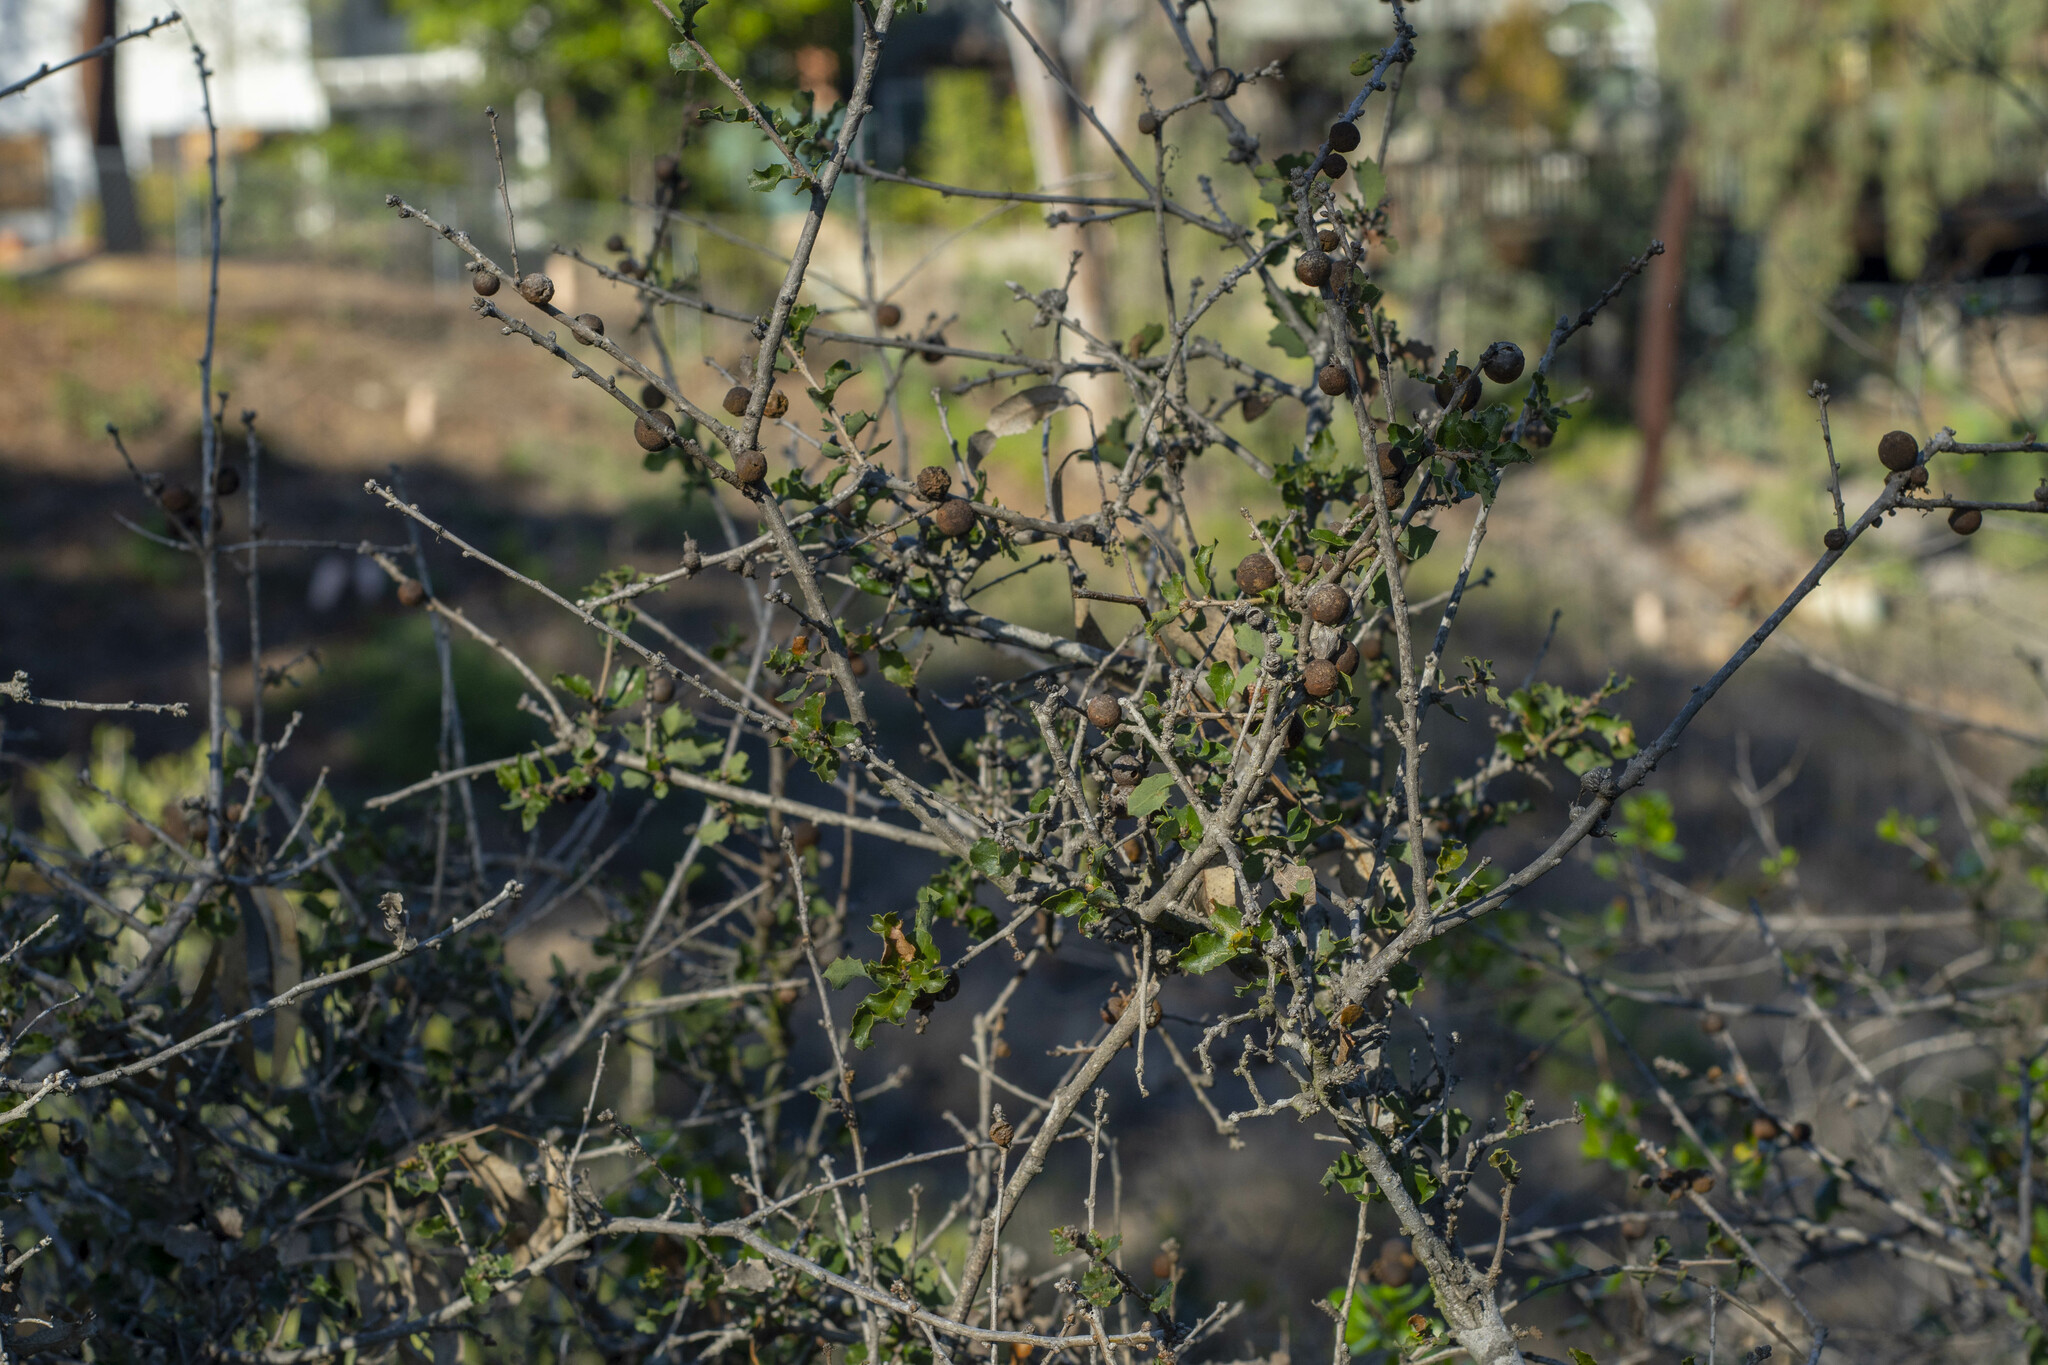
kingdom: Plantae
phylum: Tracheophyta
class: Magnoliopsida
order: Fagales
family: Fagaceae
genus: Quercus
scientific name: Quercus dumosa
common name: Coastal sage scrub oak
